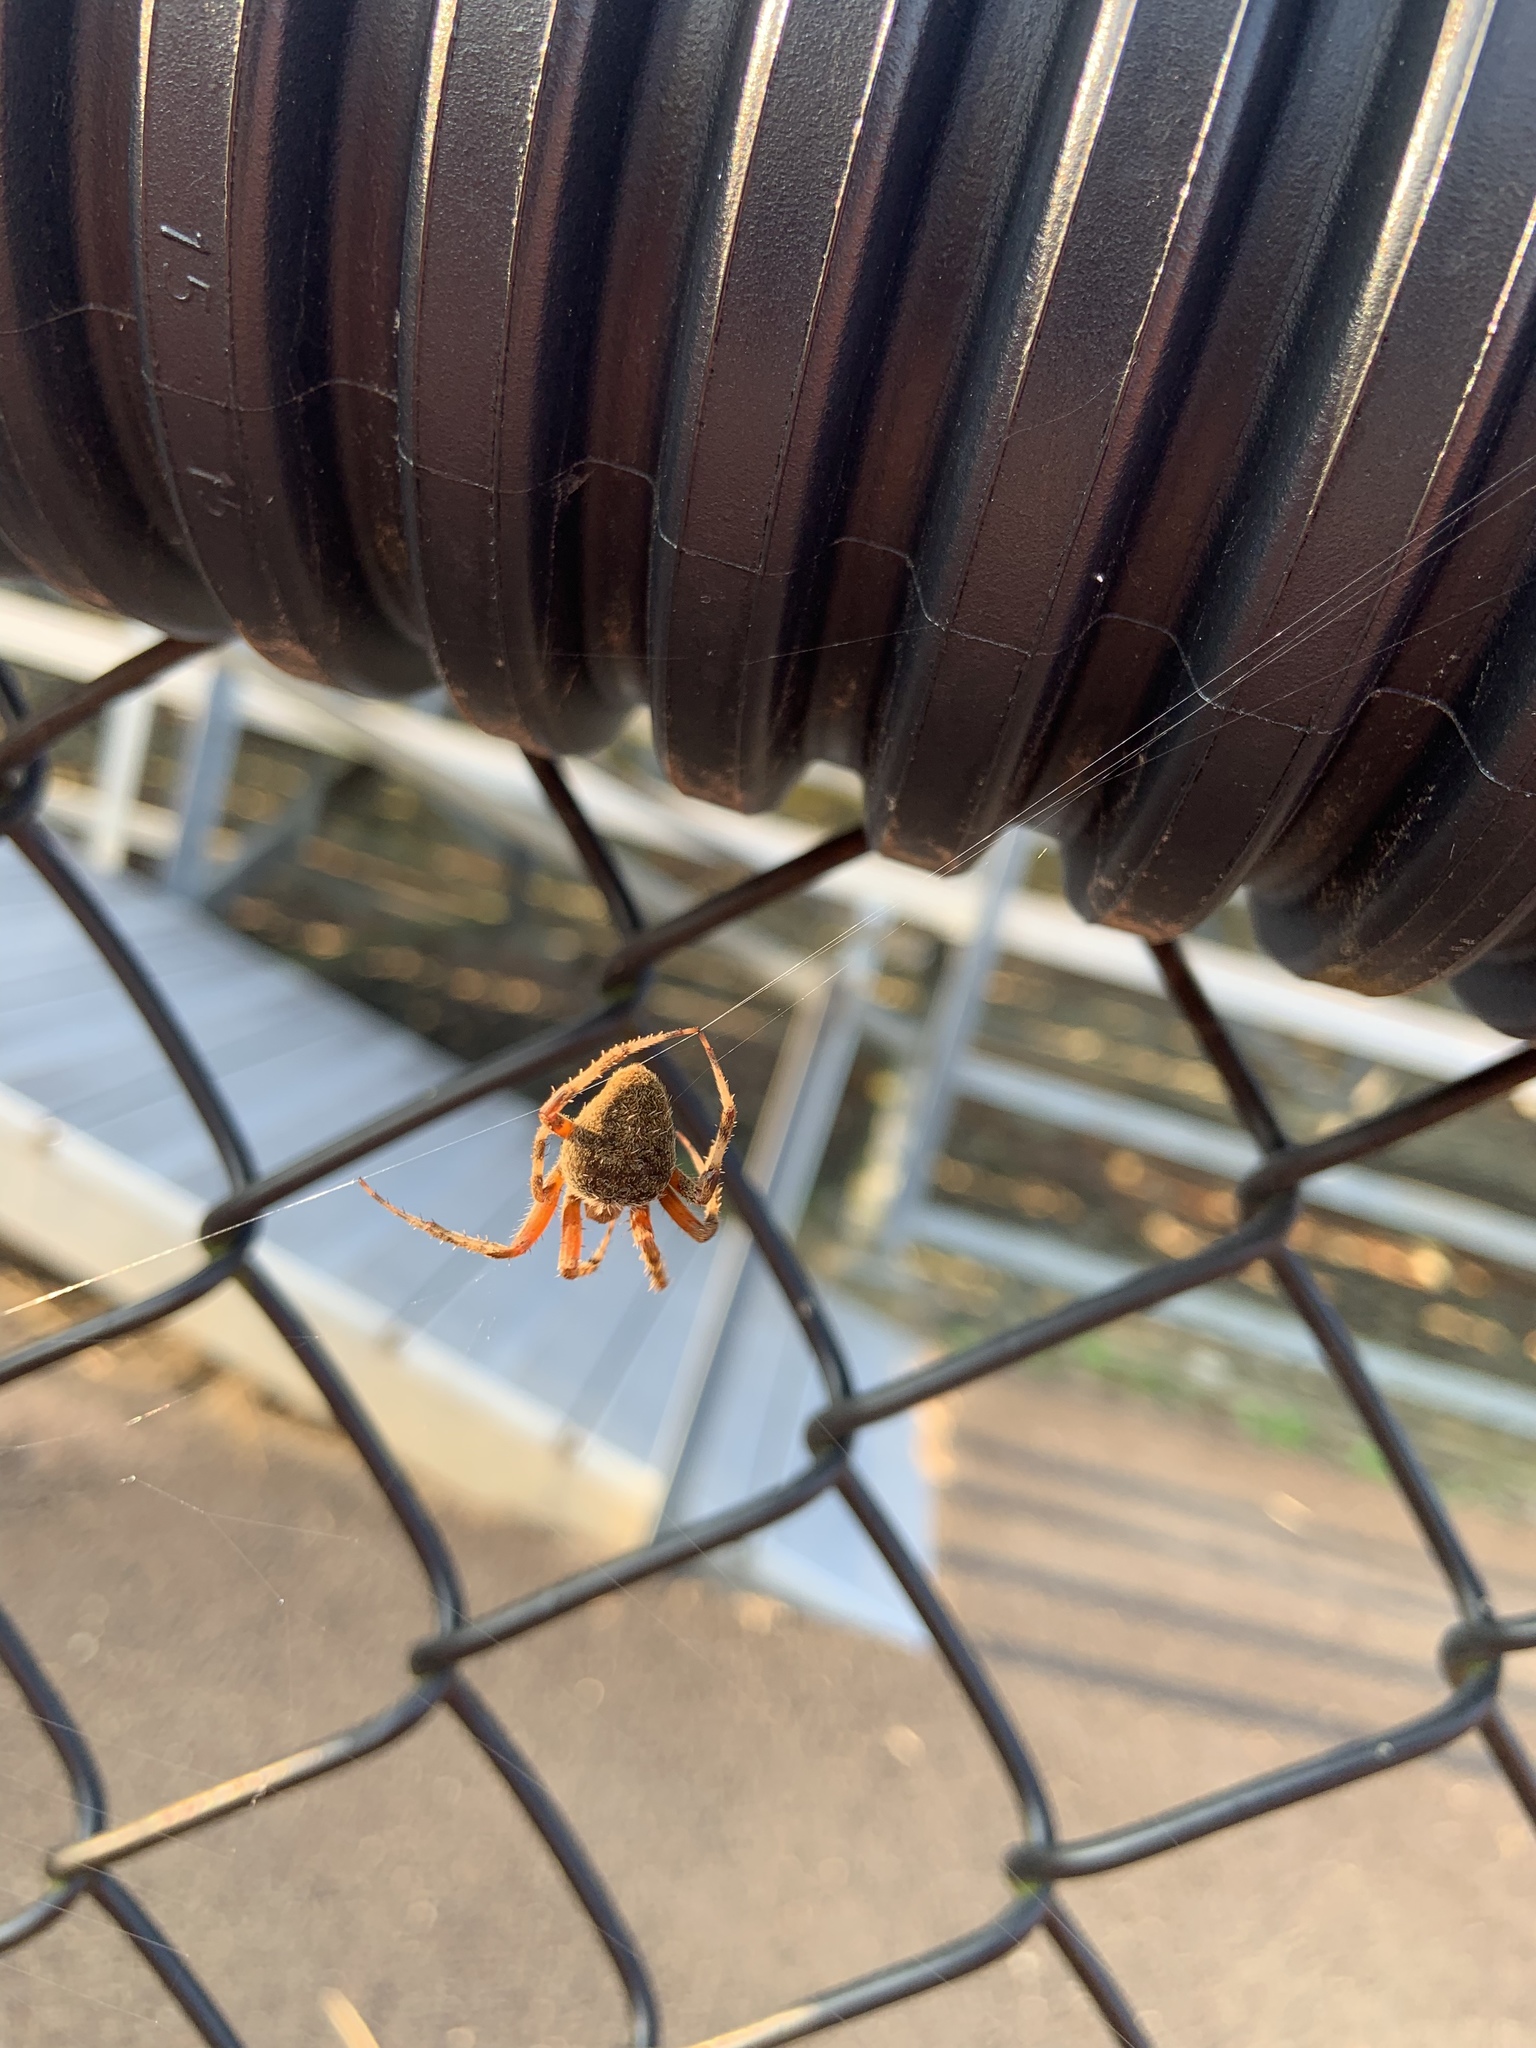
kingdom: Animalia
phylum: Arthropoda
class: Arachnida
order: Araneae
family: Araneidae
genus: Neoscona
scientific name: Neoscona crucifera
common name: Spotted orbweaver
